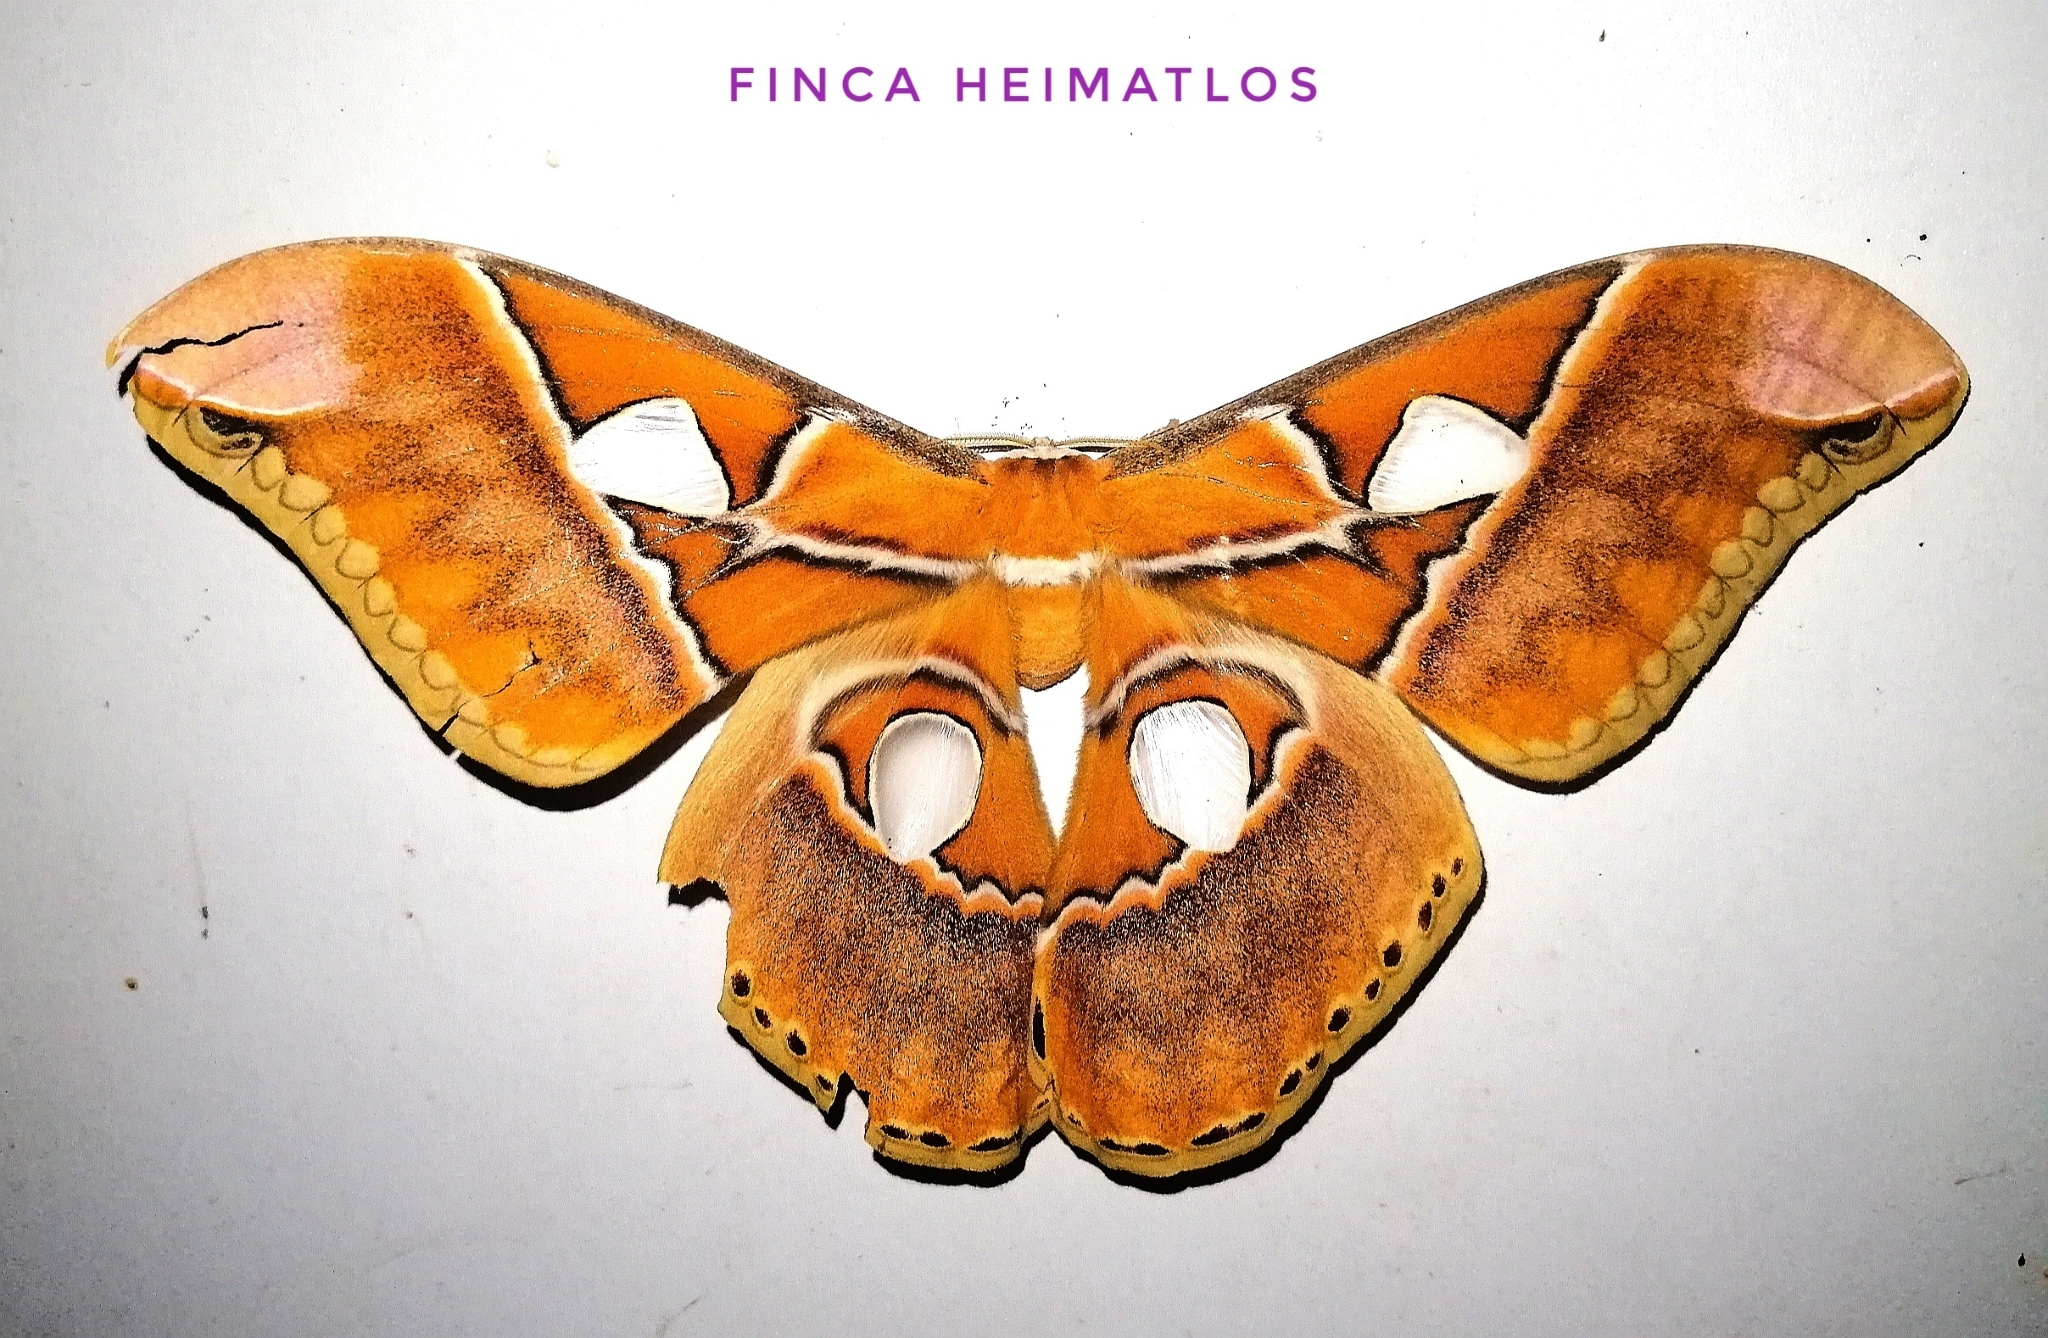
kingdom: Animalia
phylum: Arthropoda
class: Insecta
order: Lepidoptera
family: Saturniidae
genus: Rothschildia
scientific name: Rothschildia hesperus
